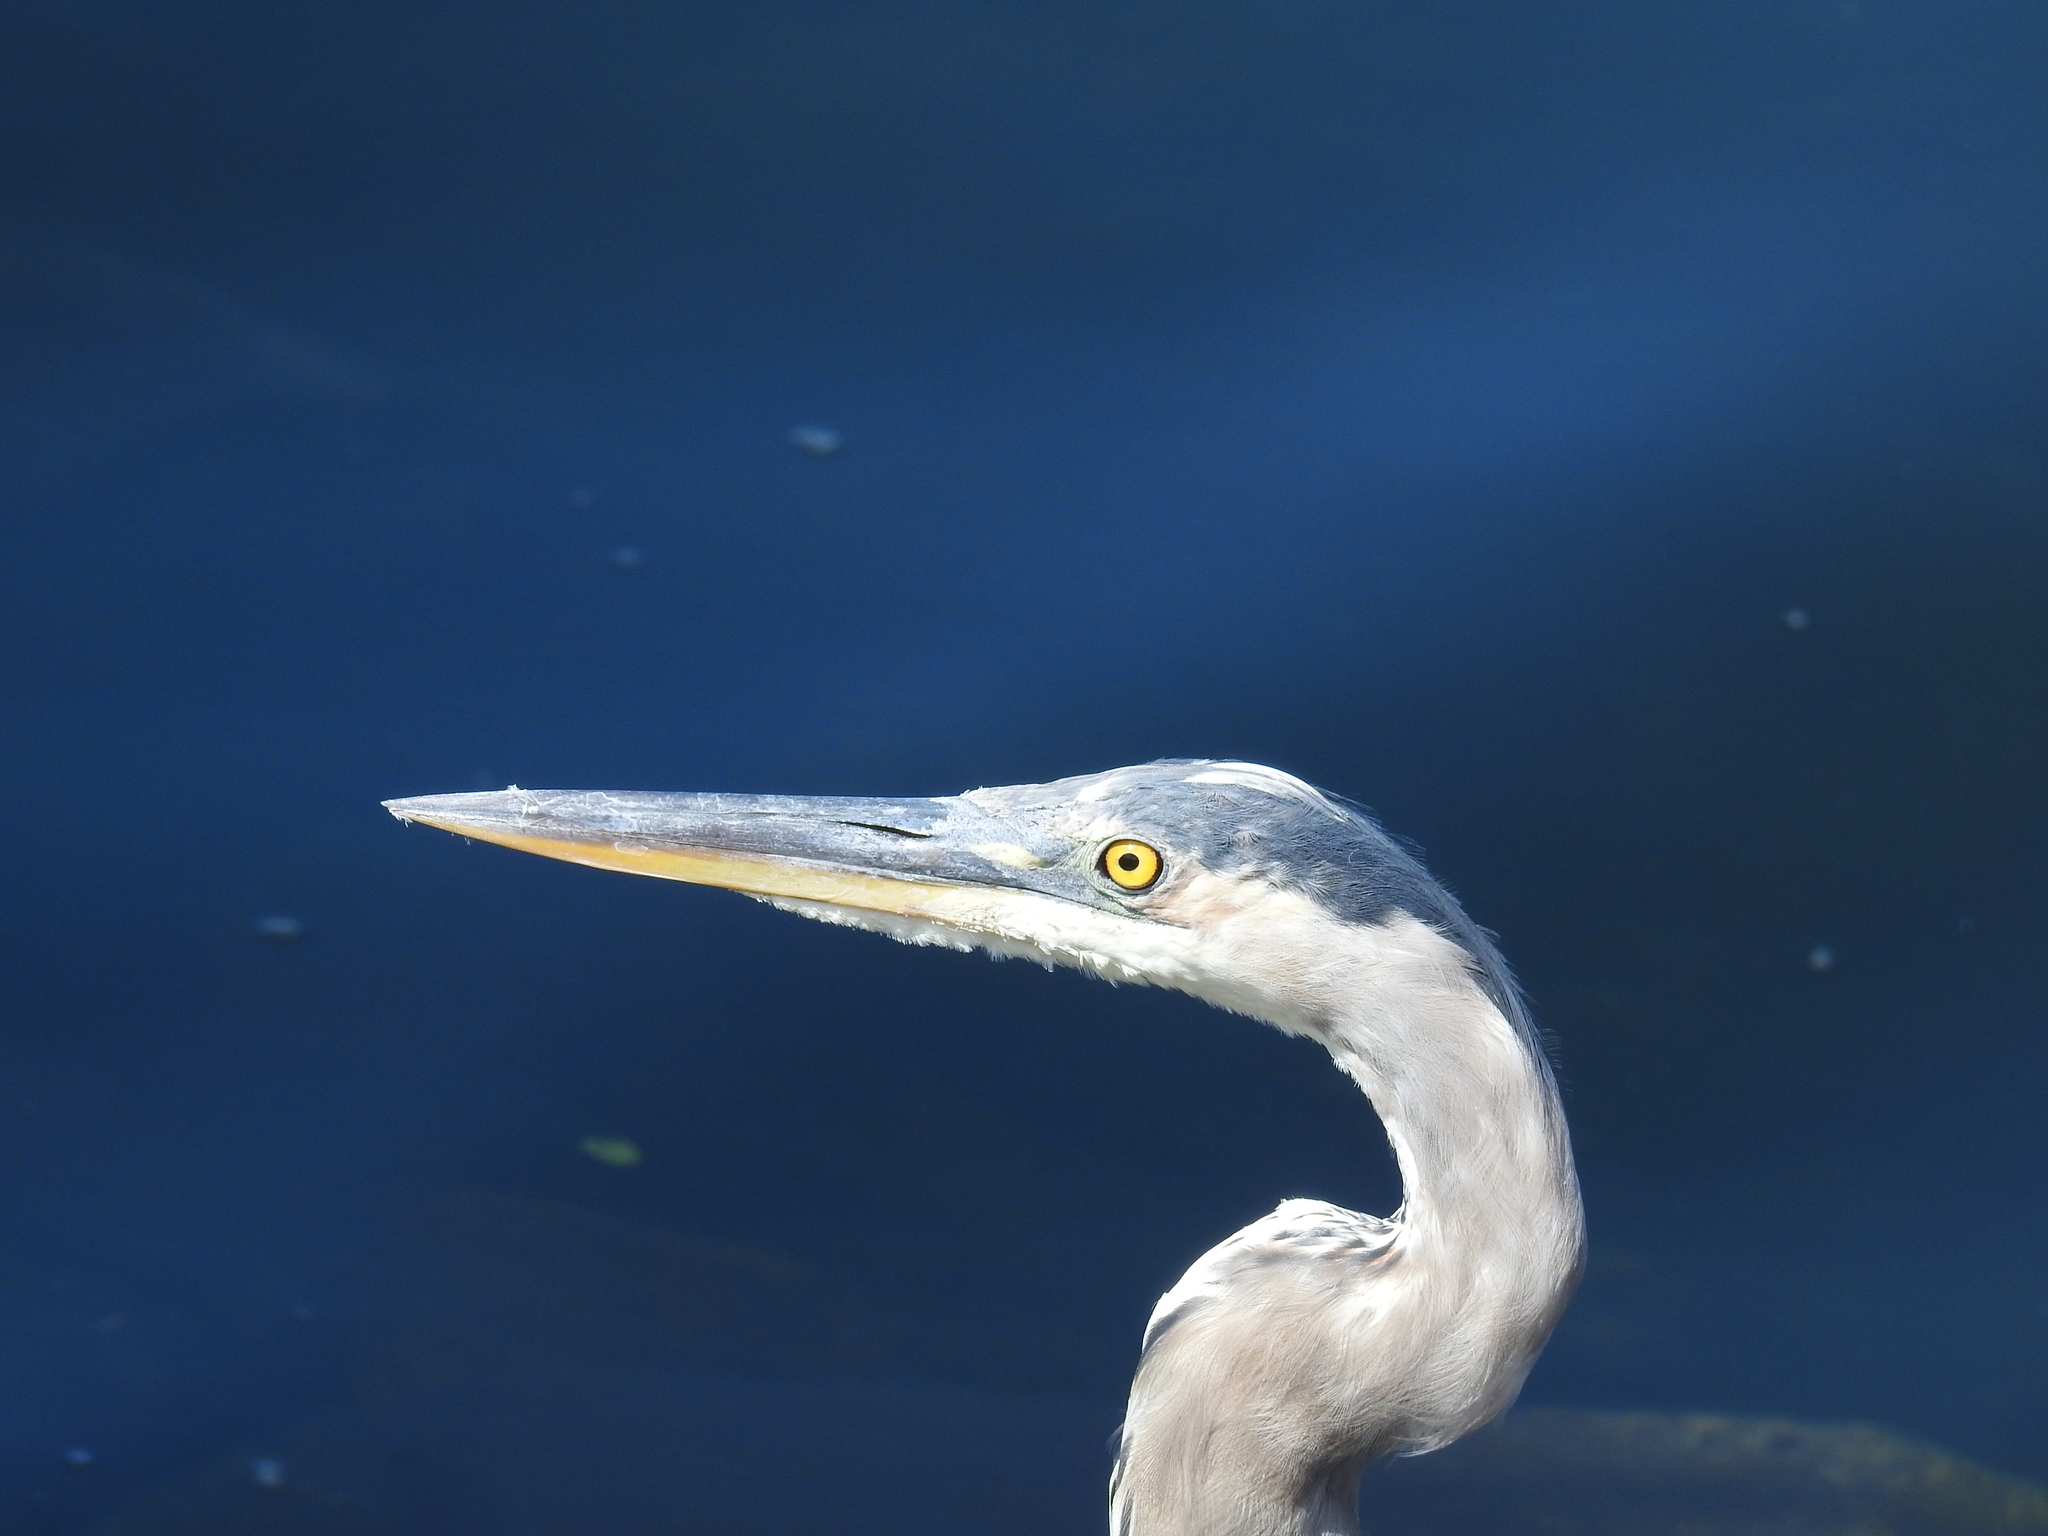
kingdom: Animalia
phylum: Chordata
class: Aves
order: Pelecaniformes
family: Ardeidae
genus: Ardea
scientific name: Ardea herodias
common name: Great blue heron
